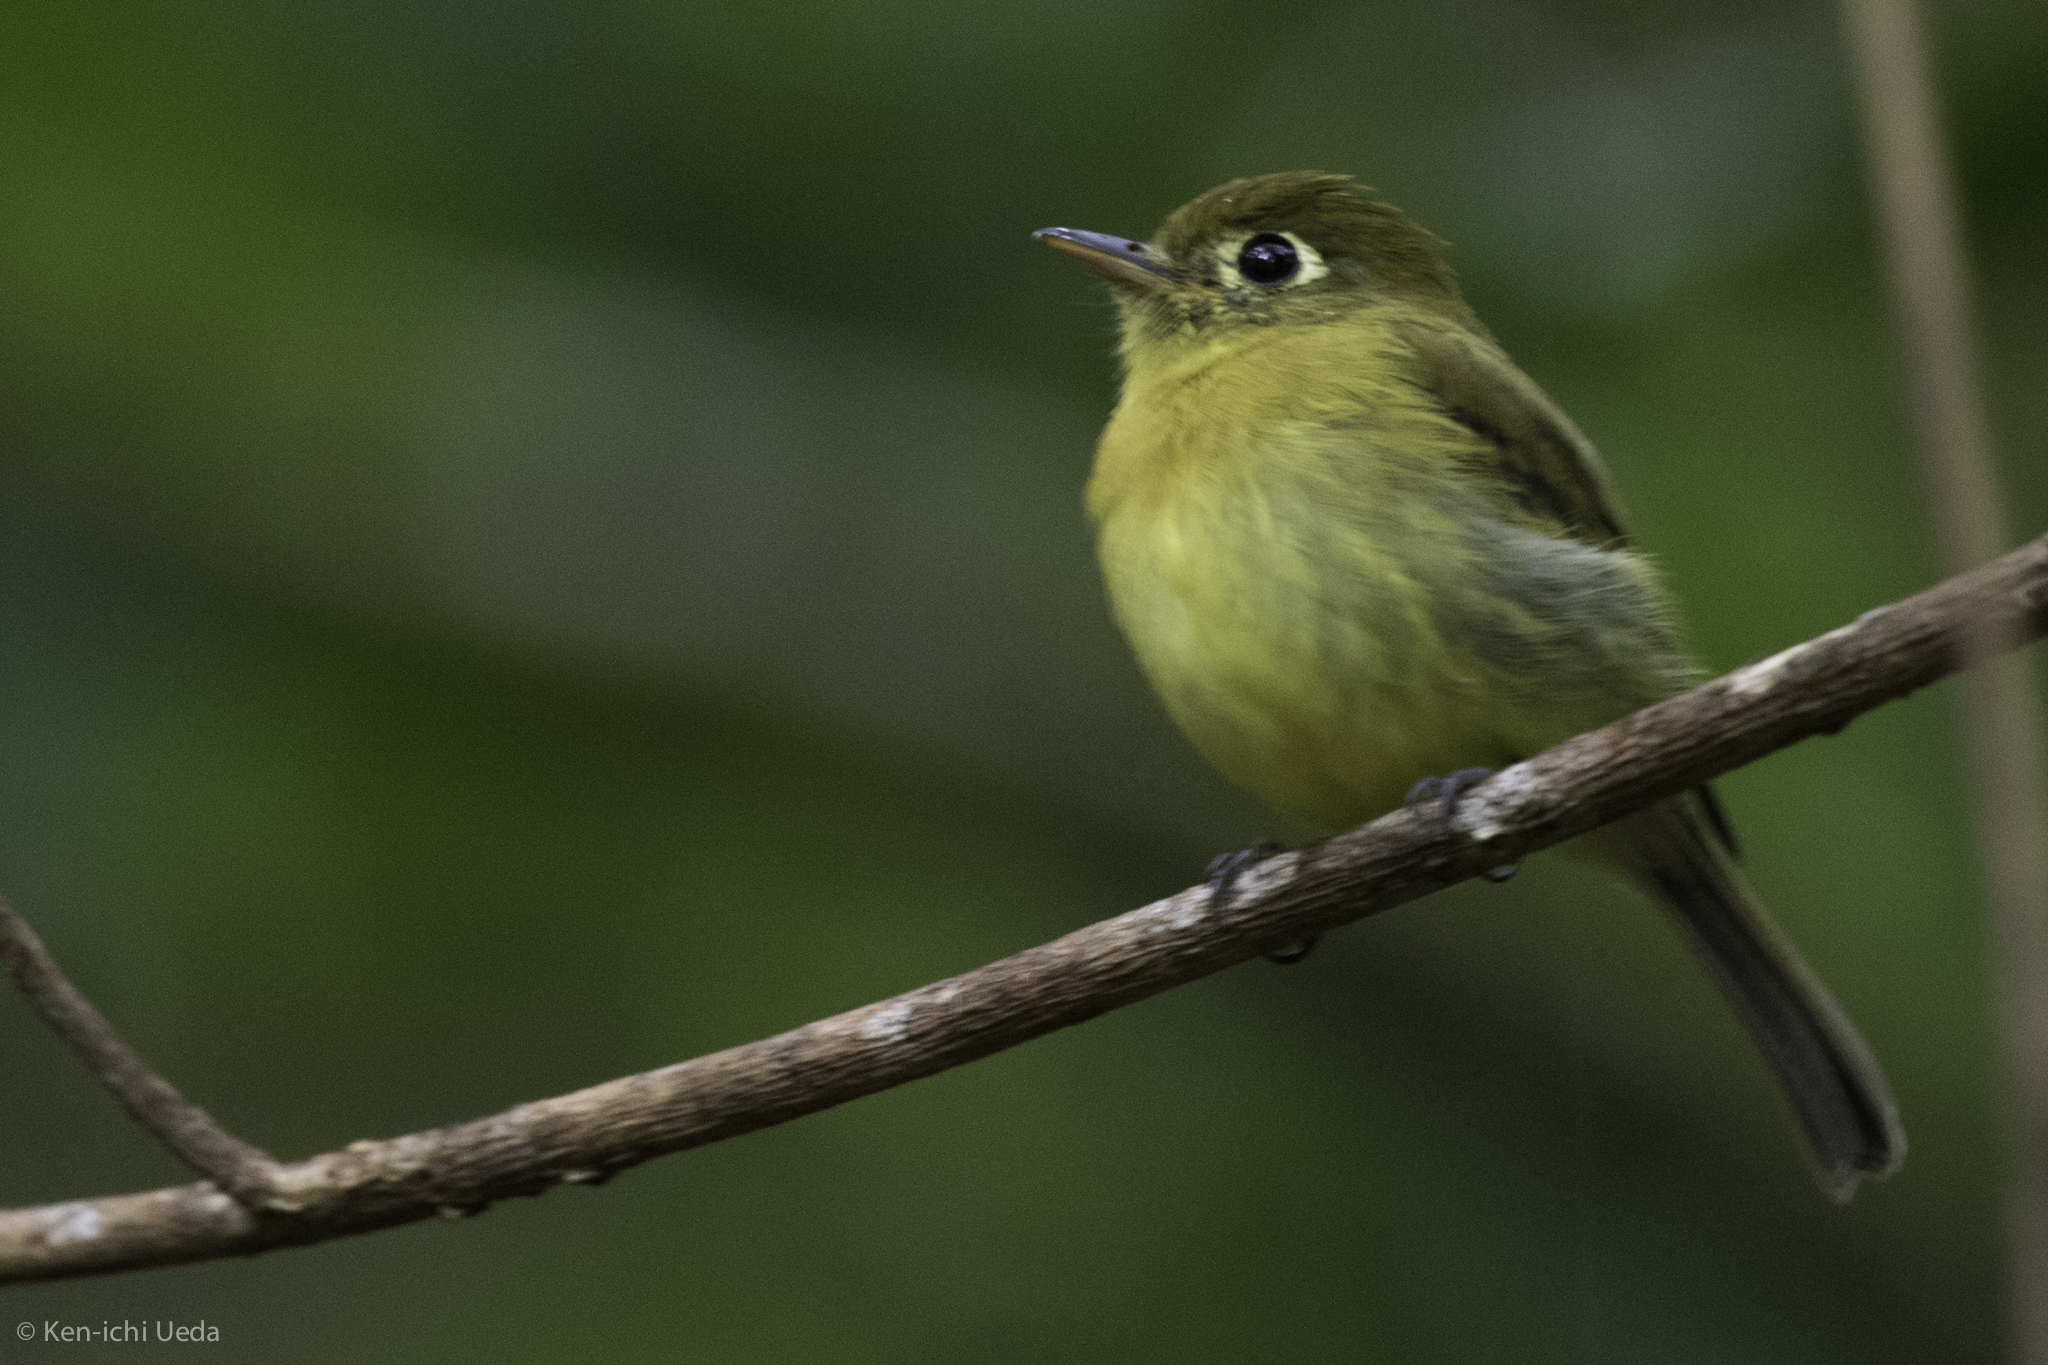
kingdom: Animalia
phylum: Chordata
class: Aves
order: Passeriformes
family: Tyrannidae
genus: Empidonax
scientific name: Empidonax flavescens
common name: Yellowish flycatcher
